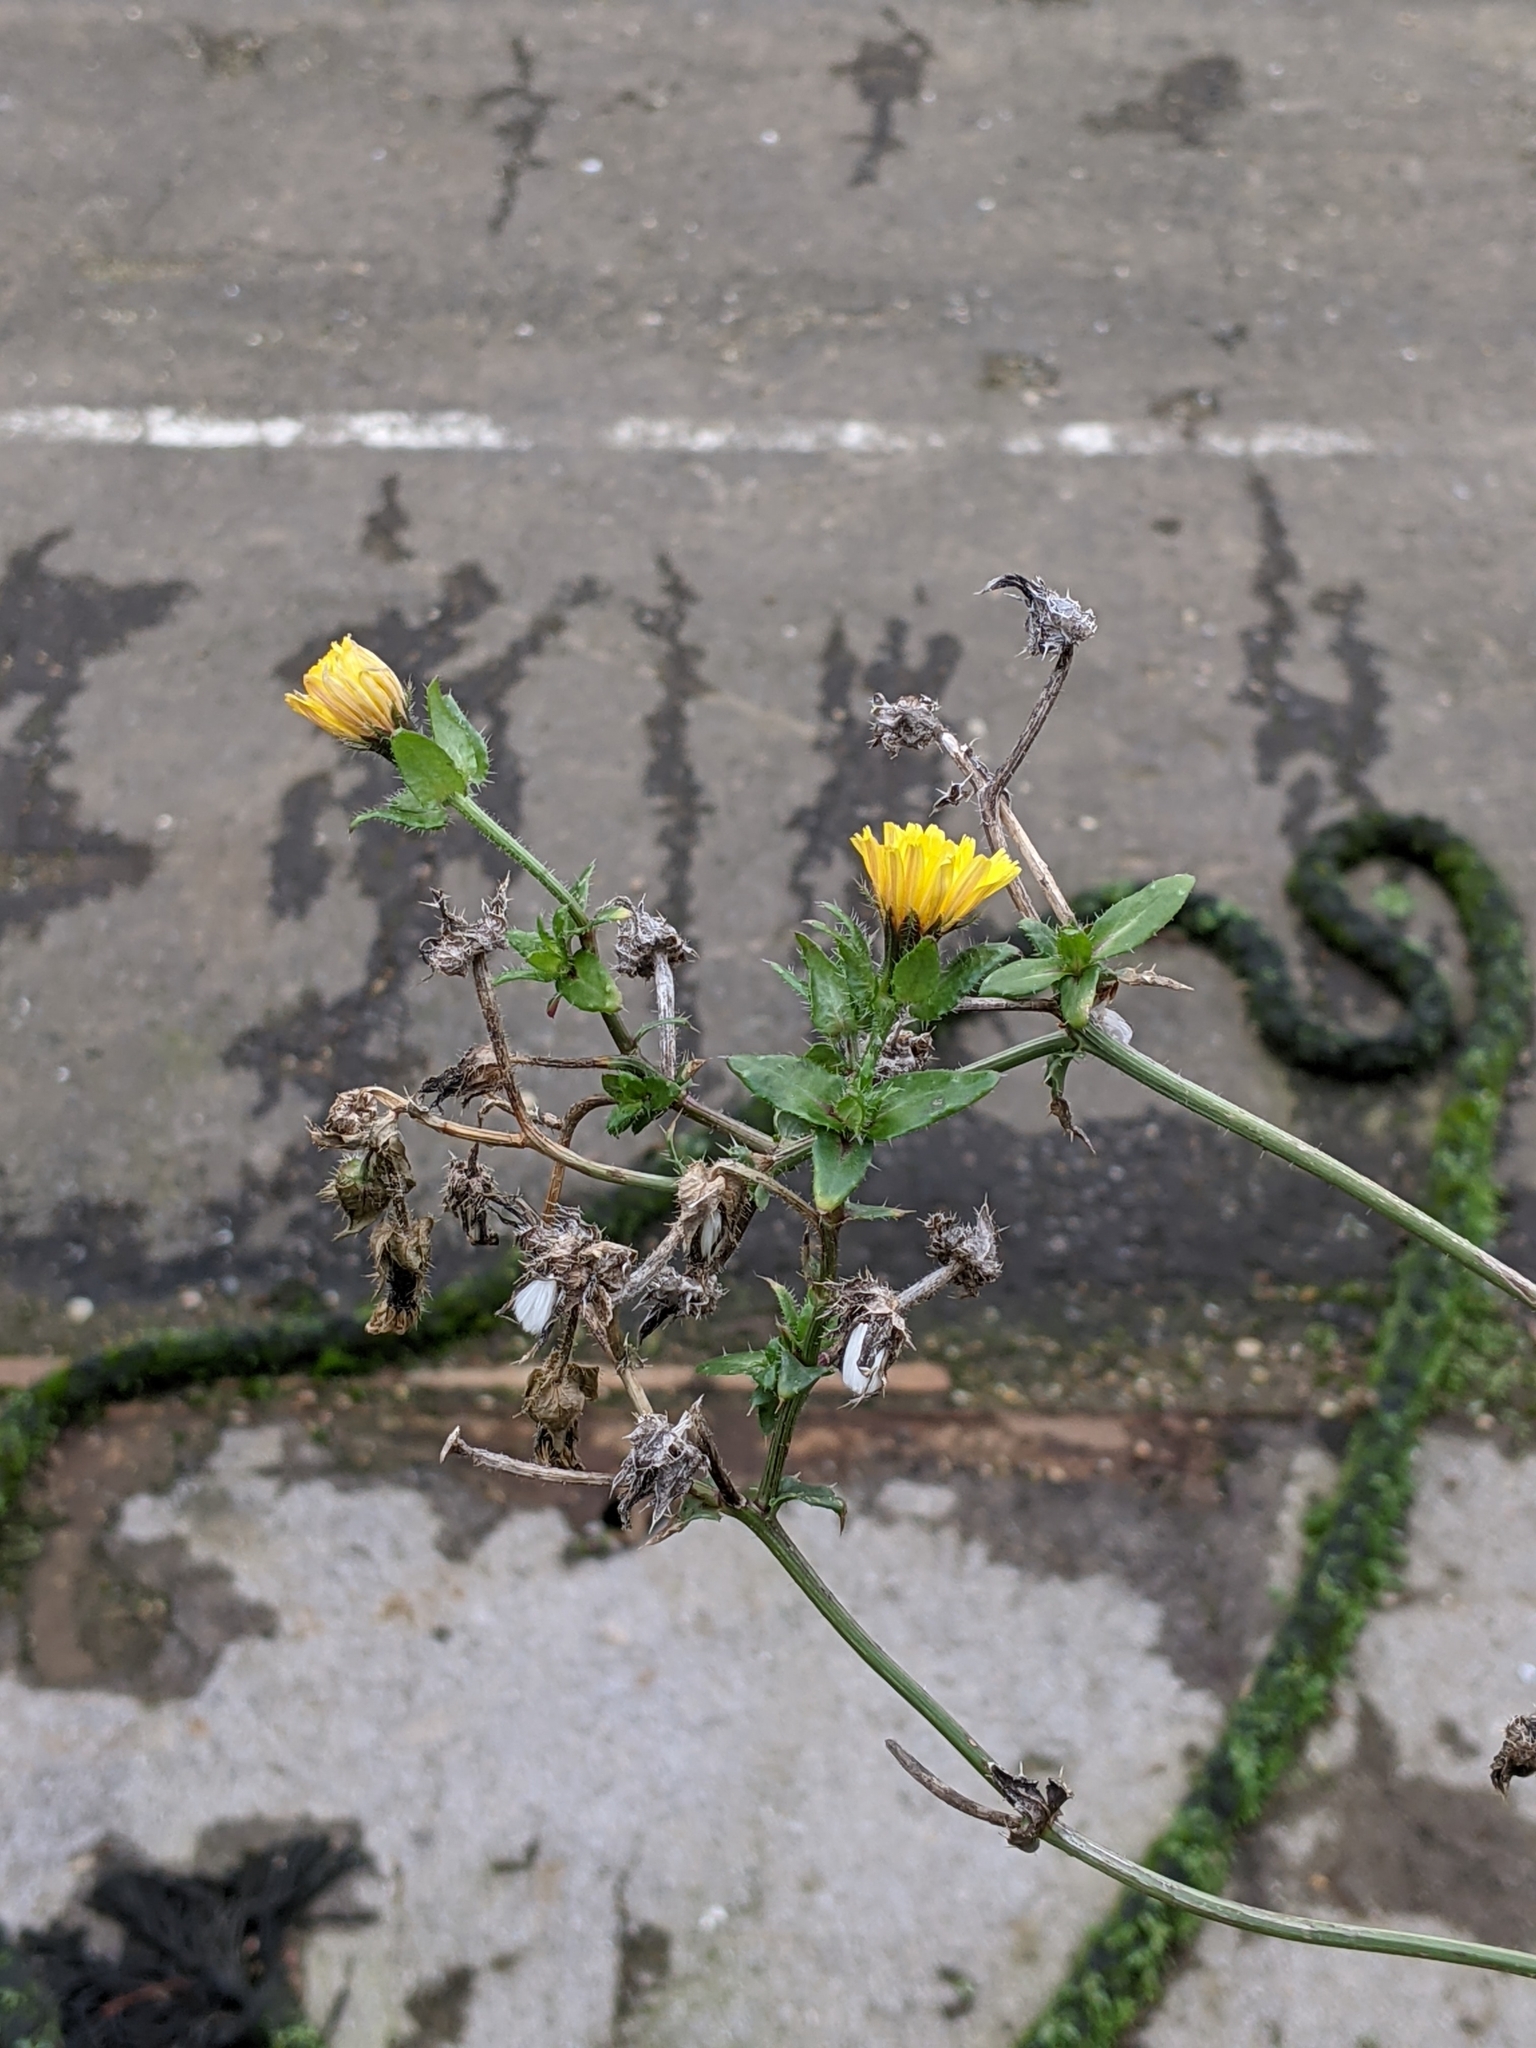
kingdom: Plantae
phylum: Tracheophyta
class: Magnoliopsida
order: Asterales
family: Asteraceae
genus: Helminthotheca
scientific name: Helminthotheca echioides
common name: Ox-tongue
